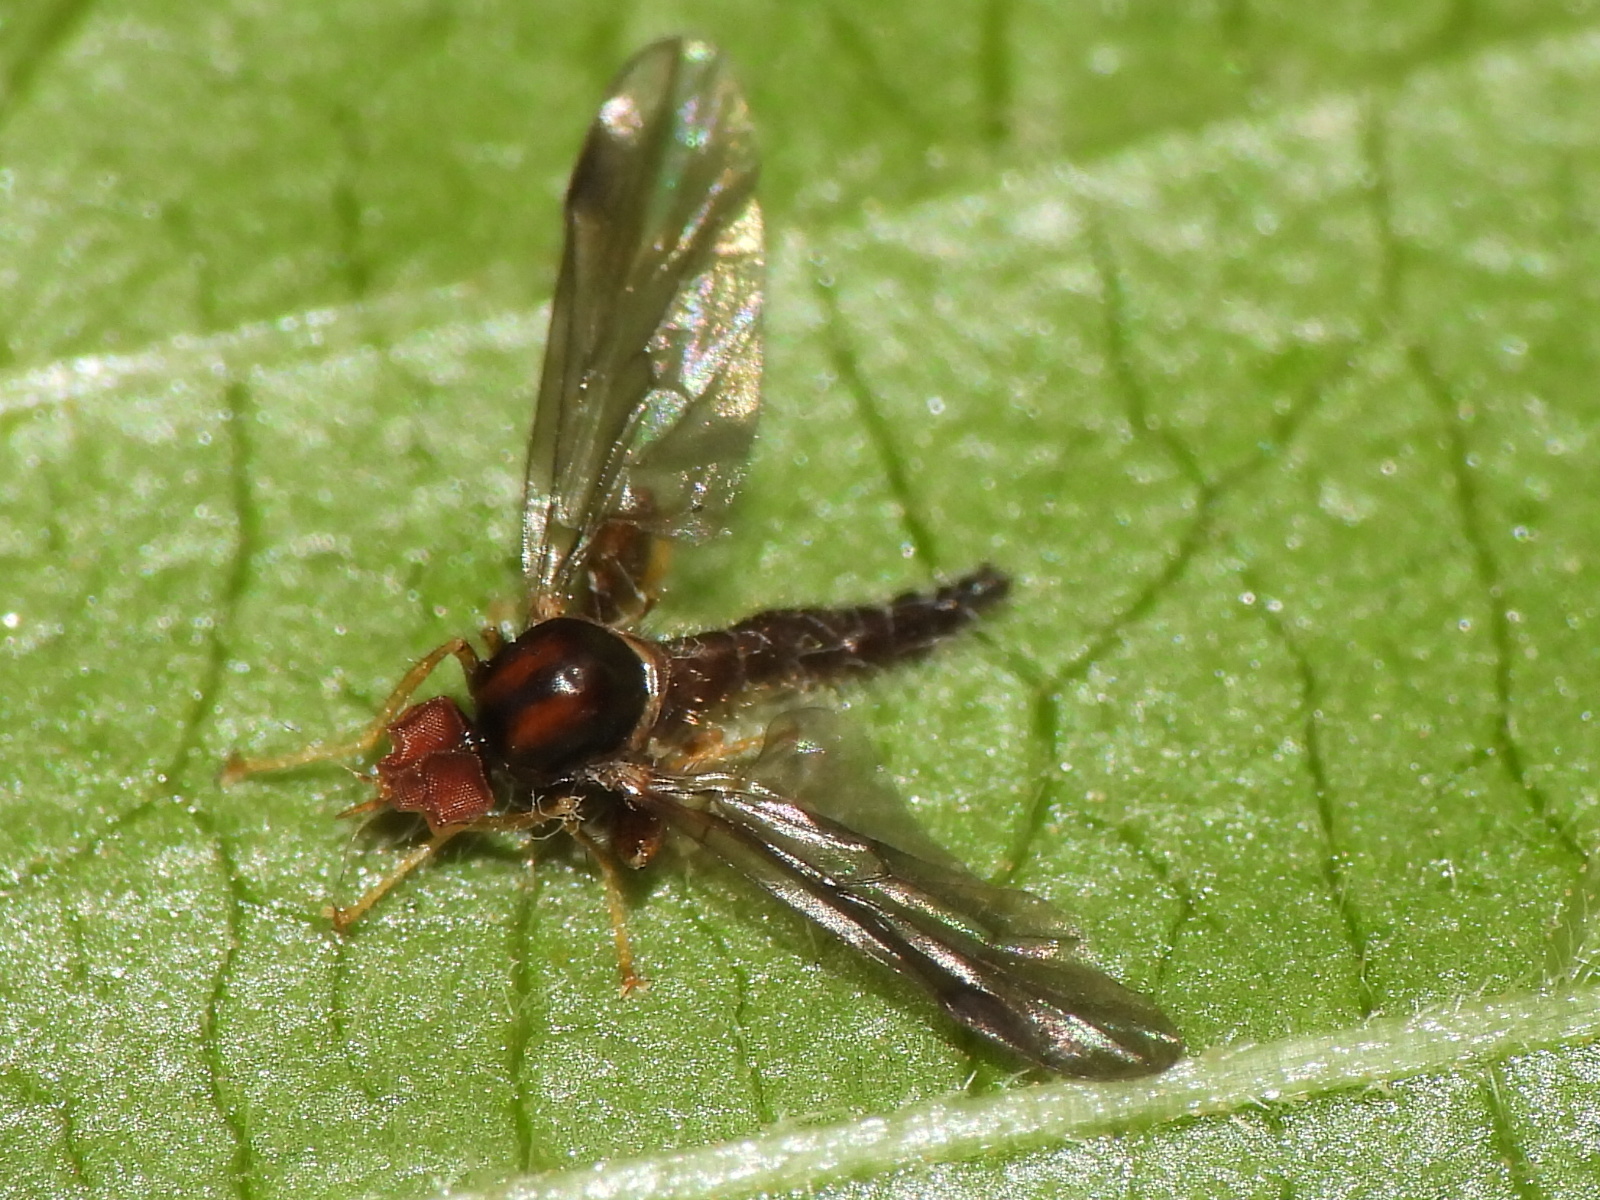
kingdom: Animalia
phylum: Arthropoda
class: Insecta
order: Diptera
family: Hybotidae
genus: Syneches
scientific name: Syneches thoracicus
